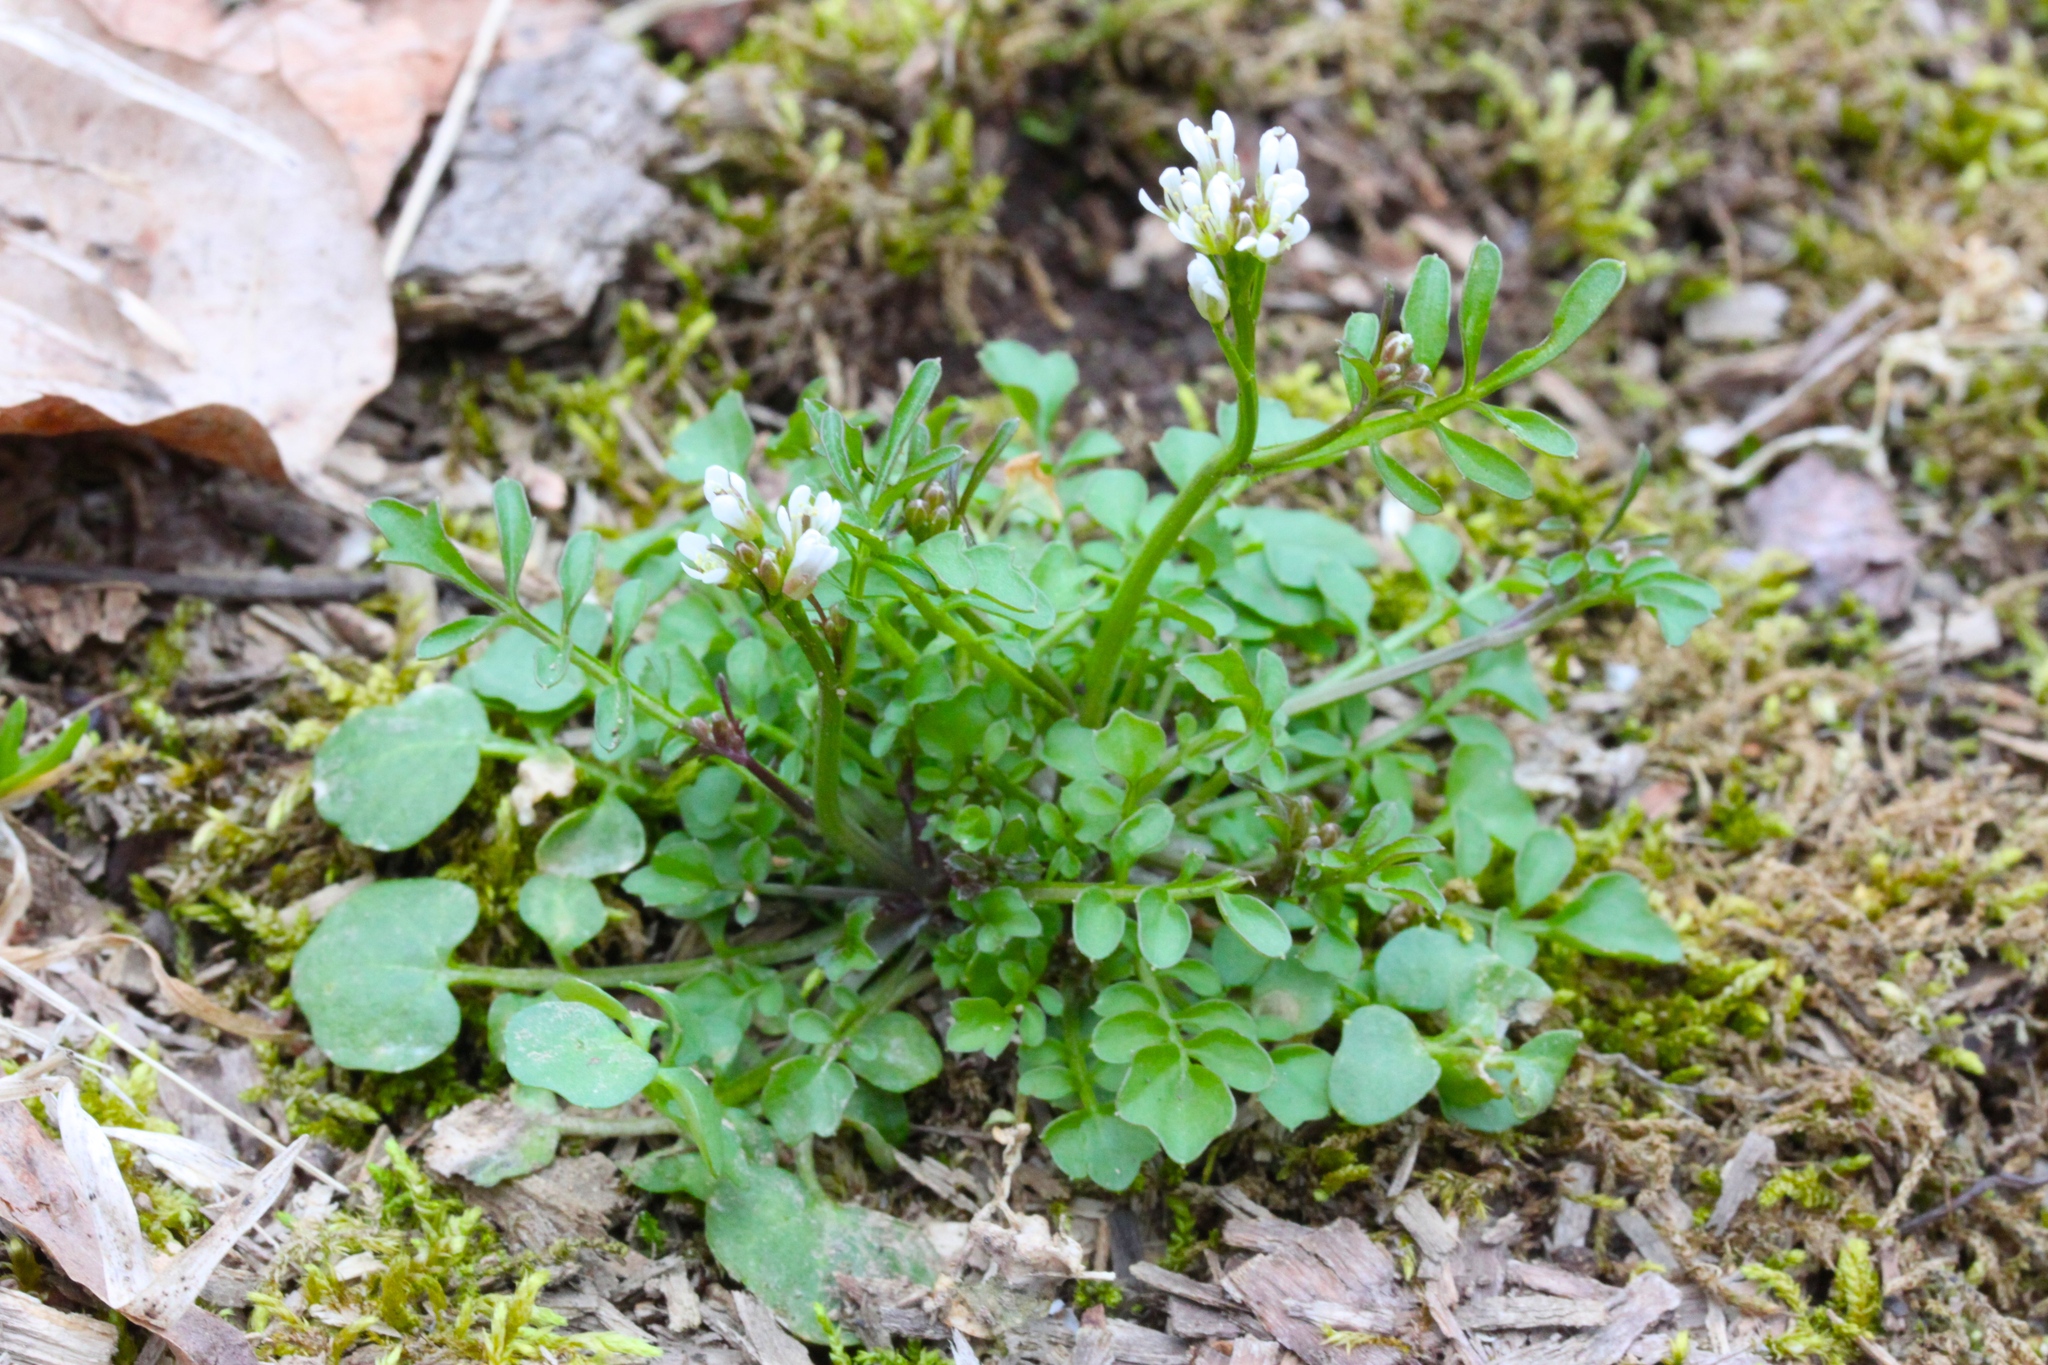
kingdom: Plantae
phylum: Tracheophyta
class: Magnoliopsida
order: Brassicales
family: Brassicaceae
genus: Cardamine
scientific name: Cardamine hirsuta
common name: Hairy bittercress
